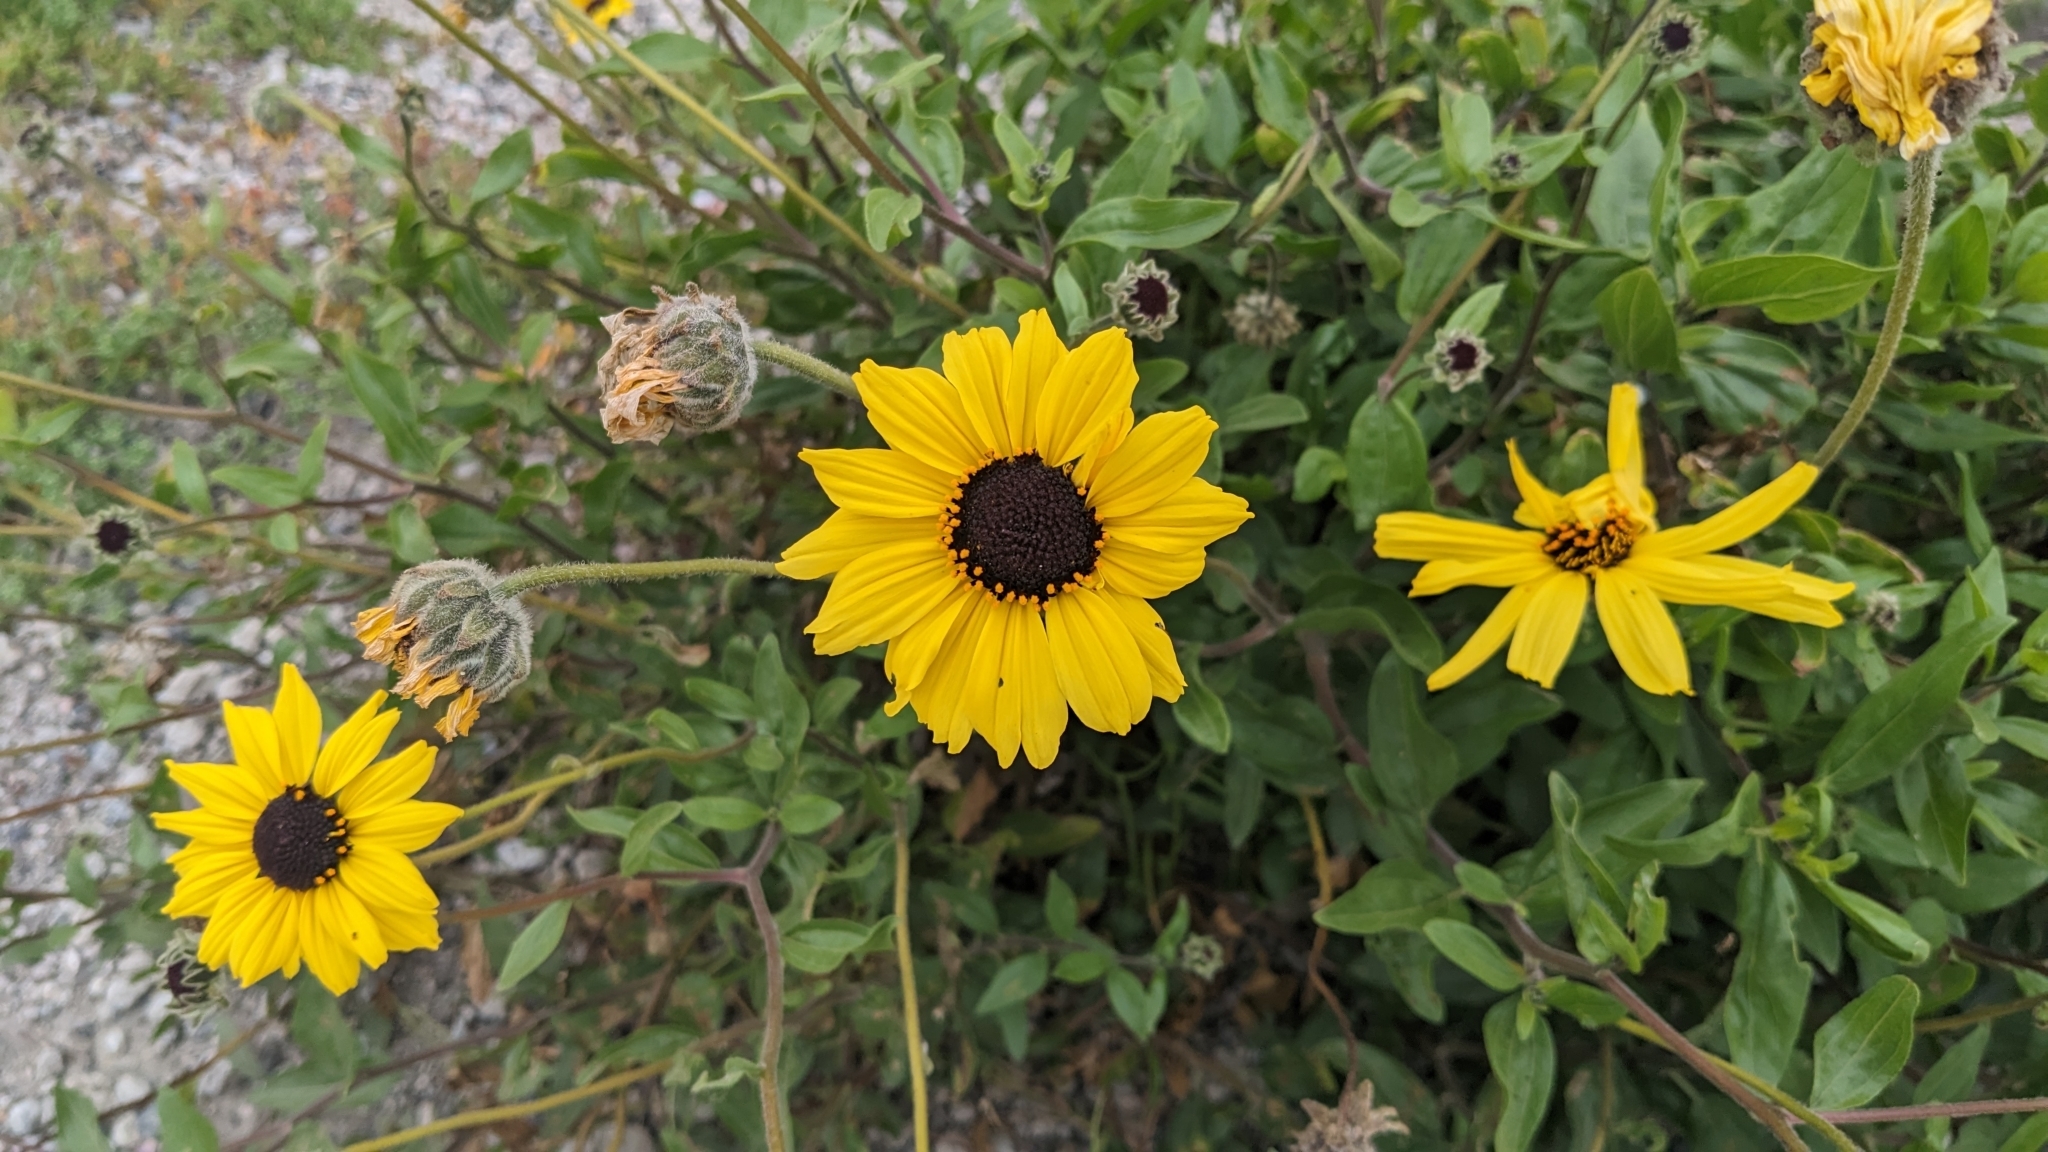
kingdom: Plantae
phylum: Tracheophyta
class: Magnoliopsida
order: Asterales
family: Asteraceae
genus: Encelia
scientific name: Encelia californica
